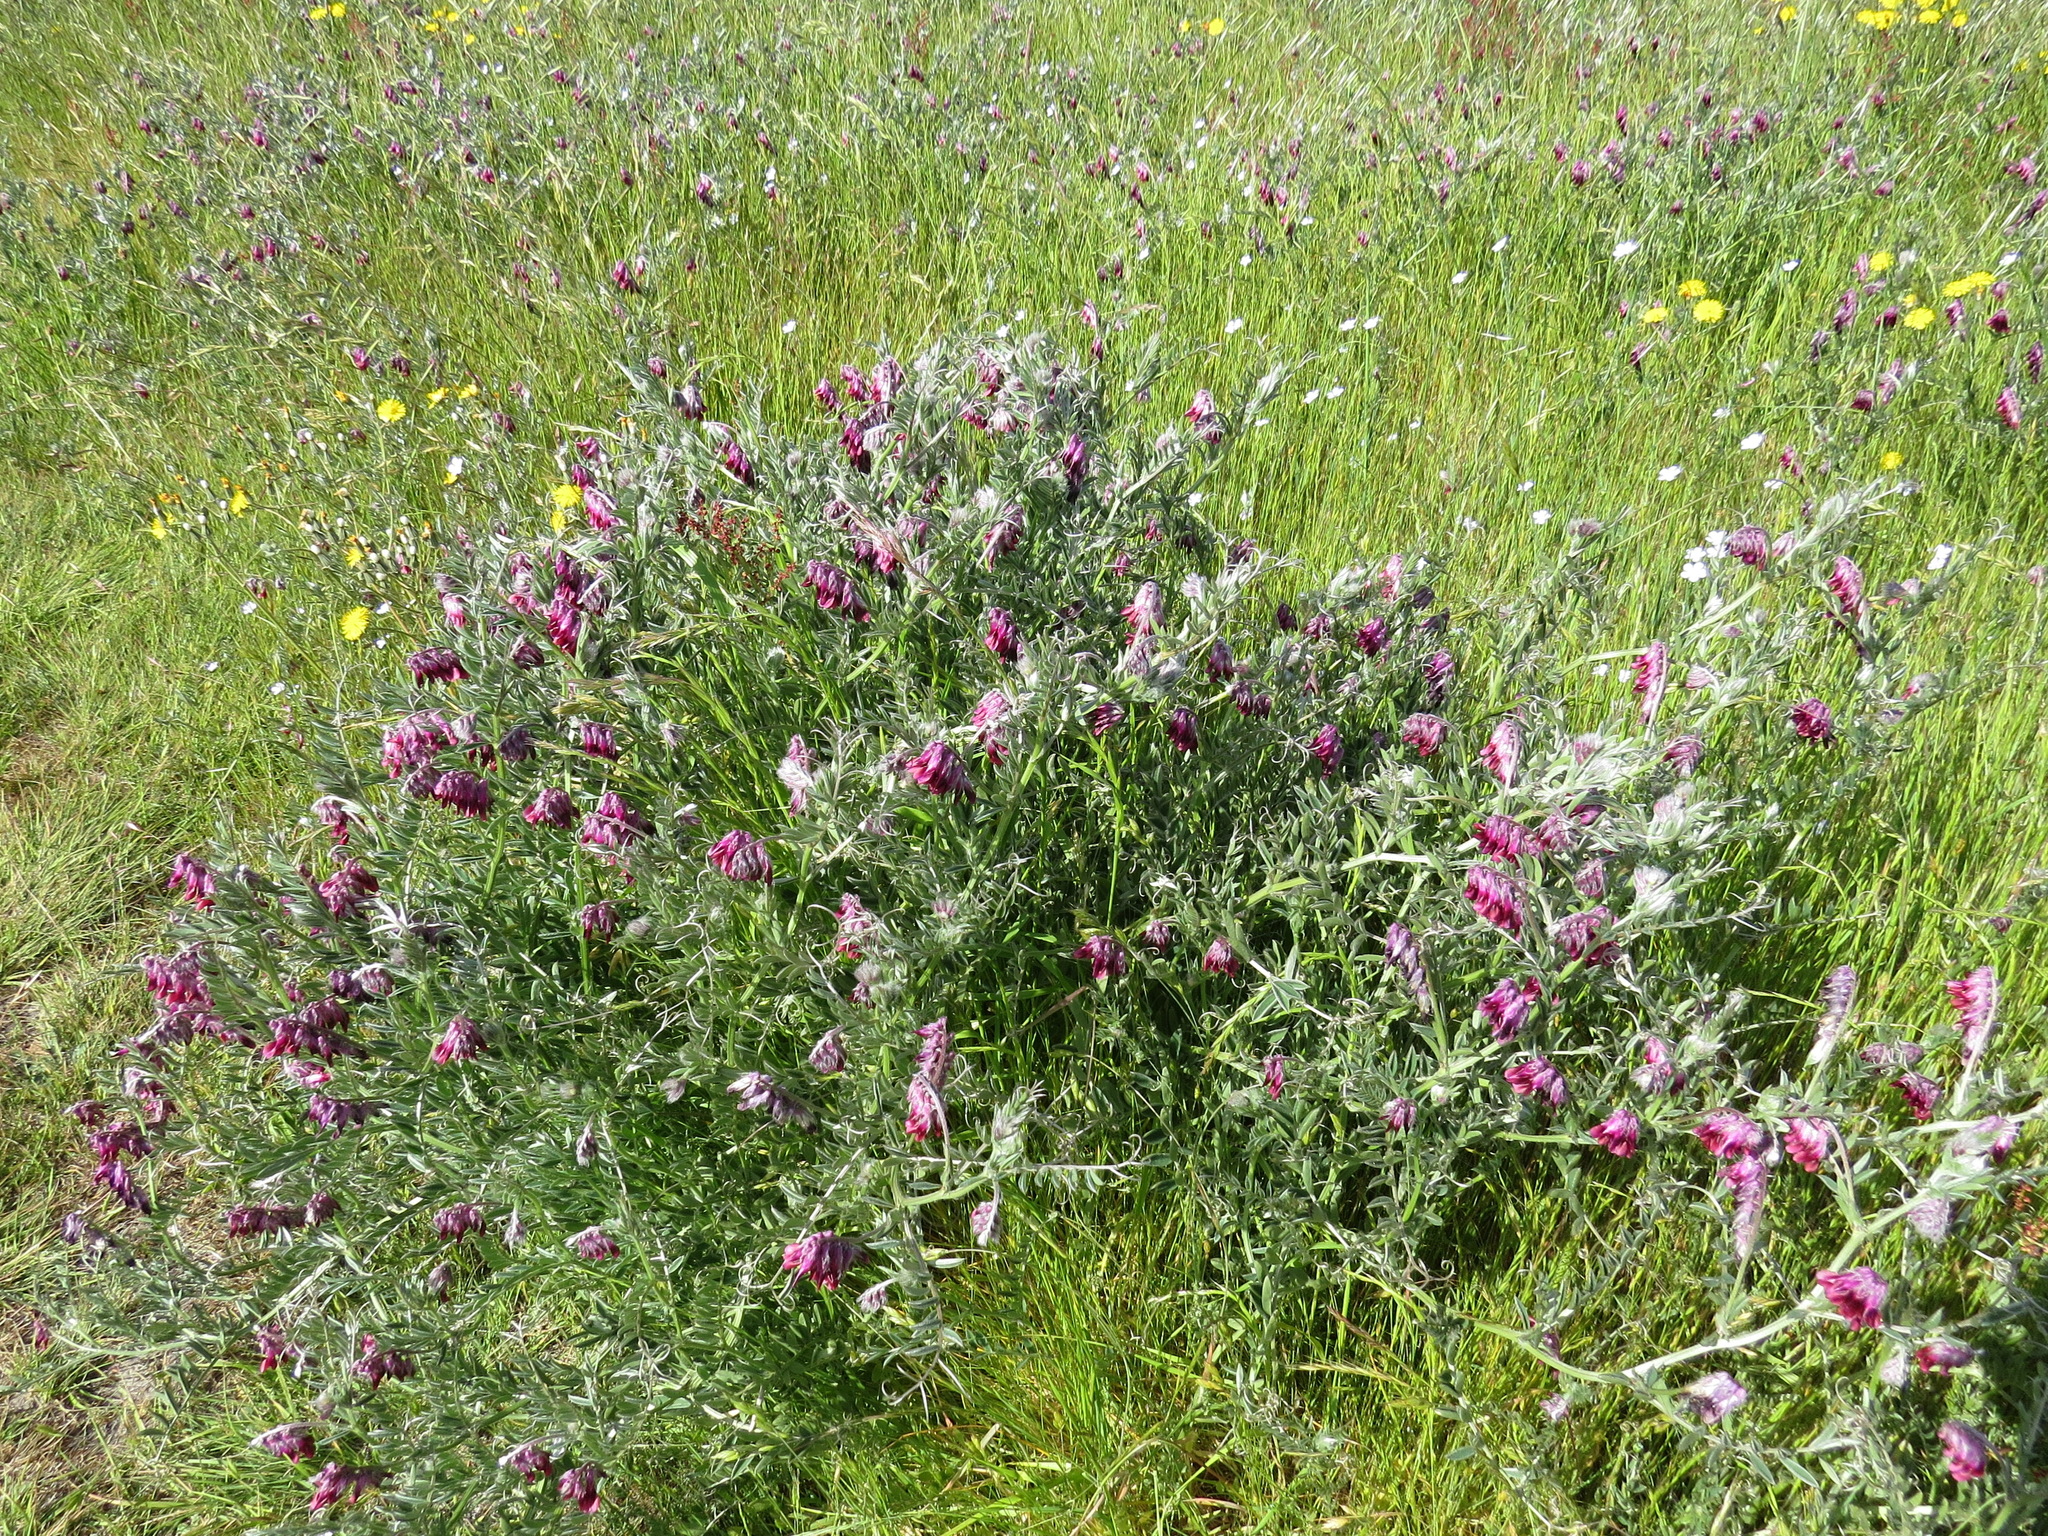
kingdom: Plantae
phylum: Tracheophyta
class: Magnoliopsida
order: Fabales
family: Fabaceae
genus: Vicia
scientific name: Vicia benghalensis
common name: Purple vetch
